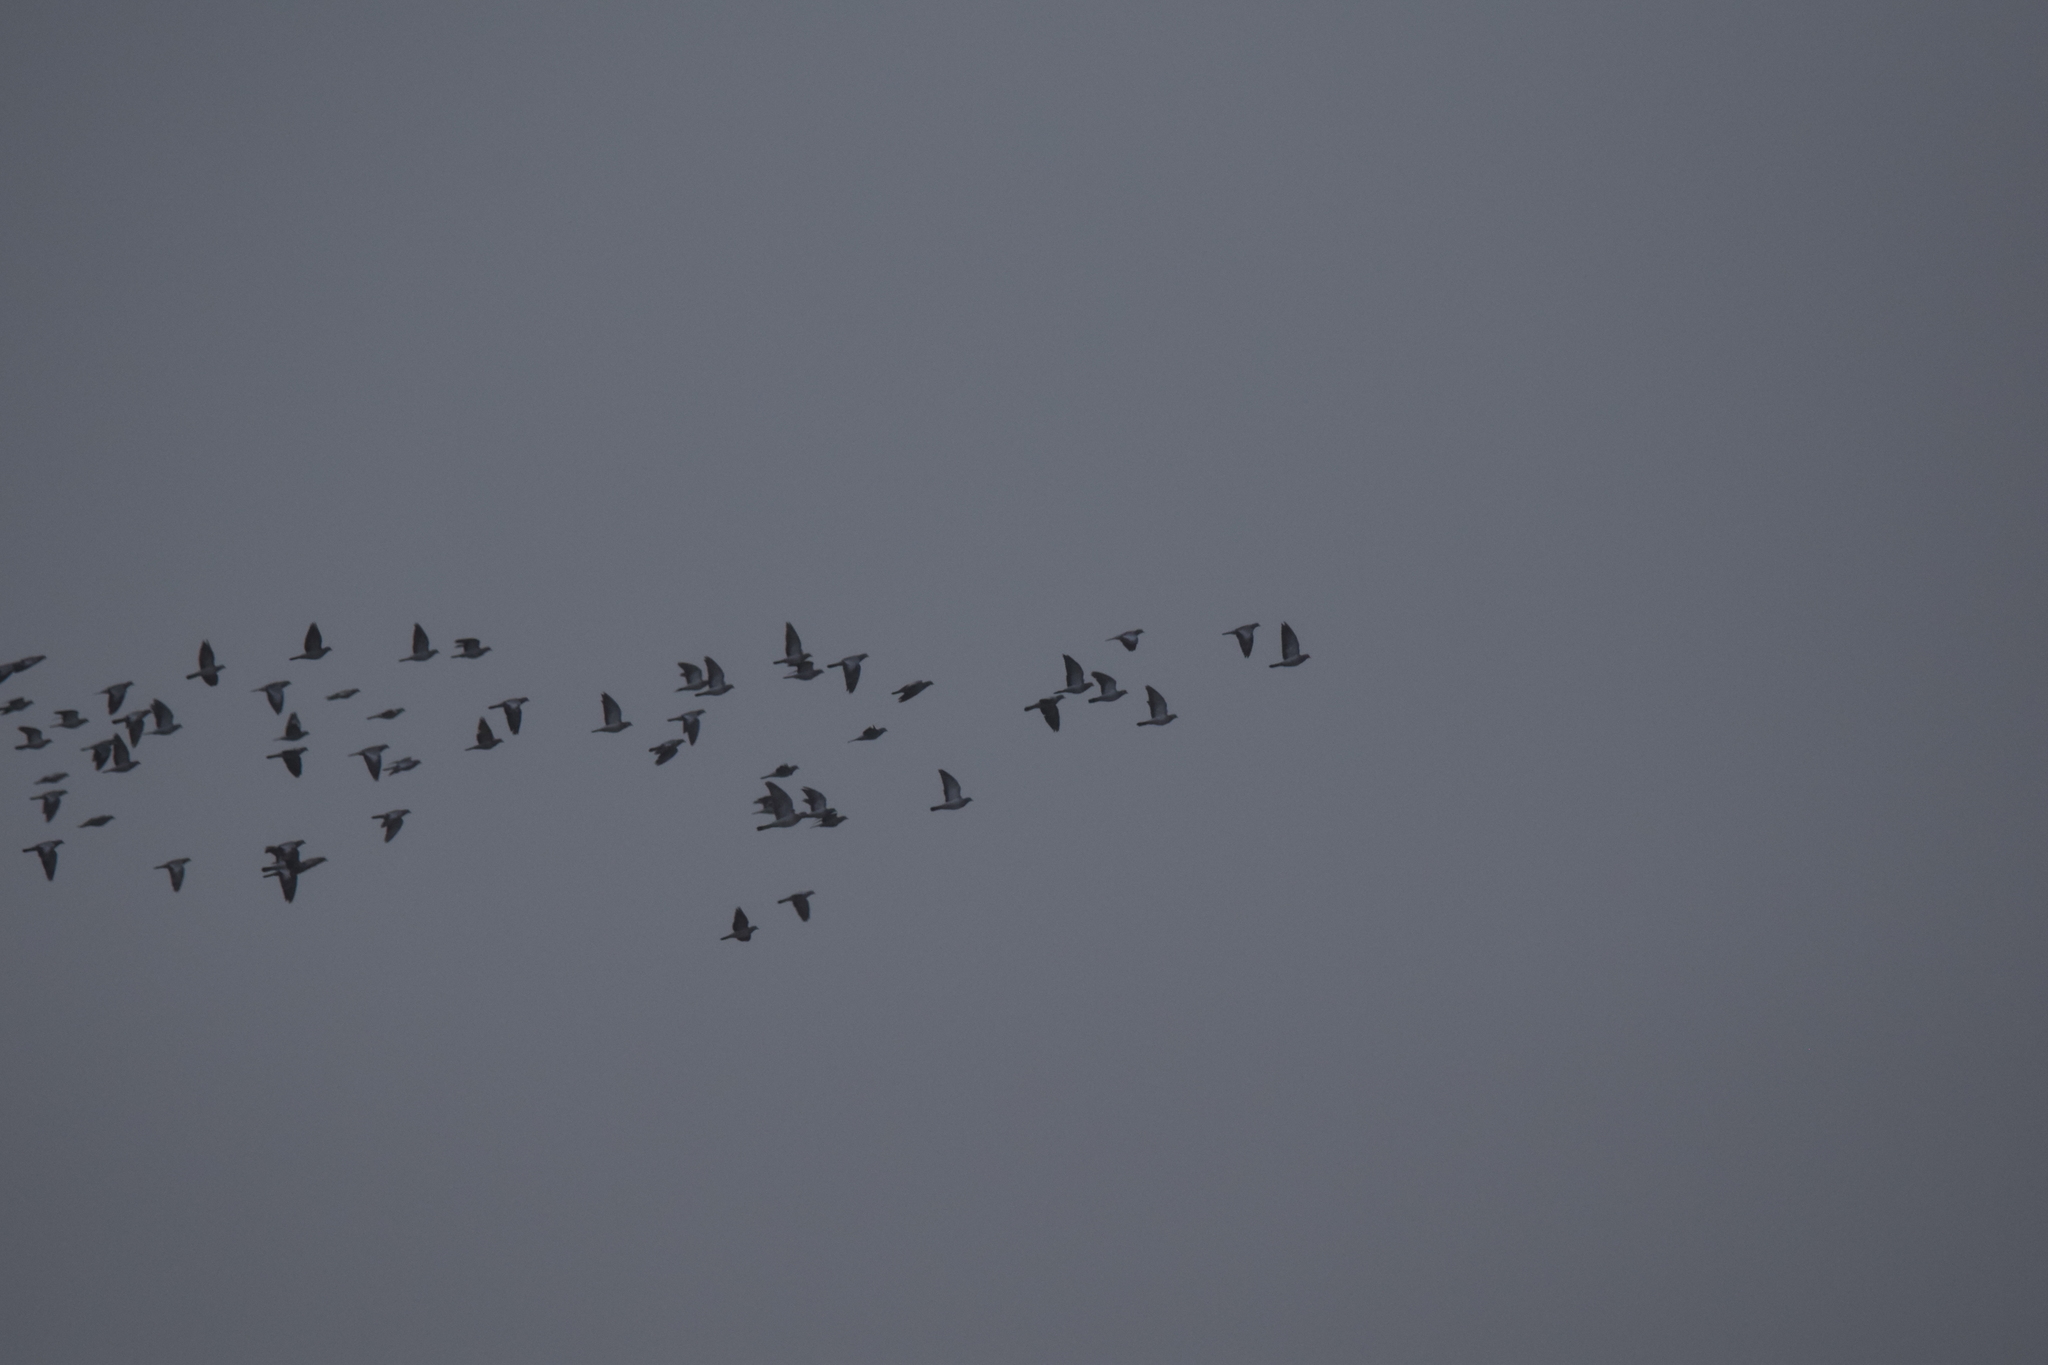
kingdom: Animalia
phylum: Chordata
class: Aves
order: Columbiformes
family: Columbidae
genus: Columba
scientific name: Columba oenas
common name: Stock dove
